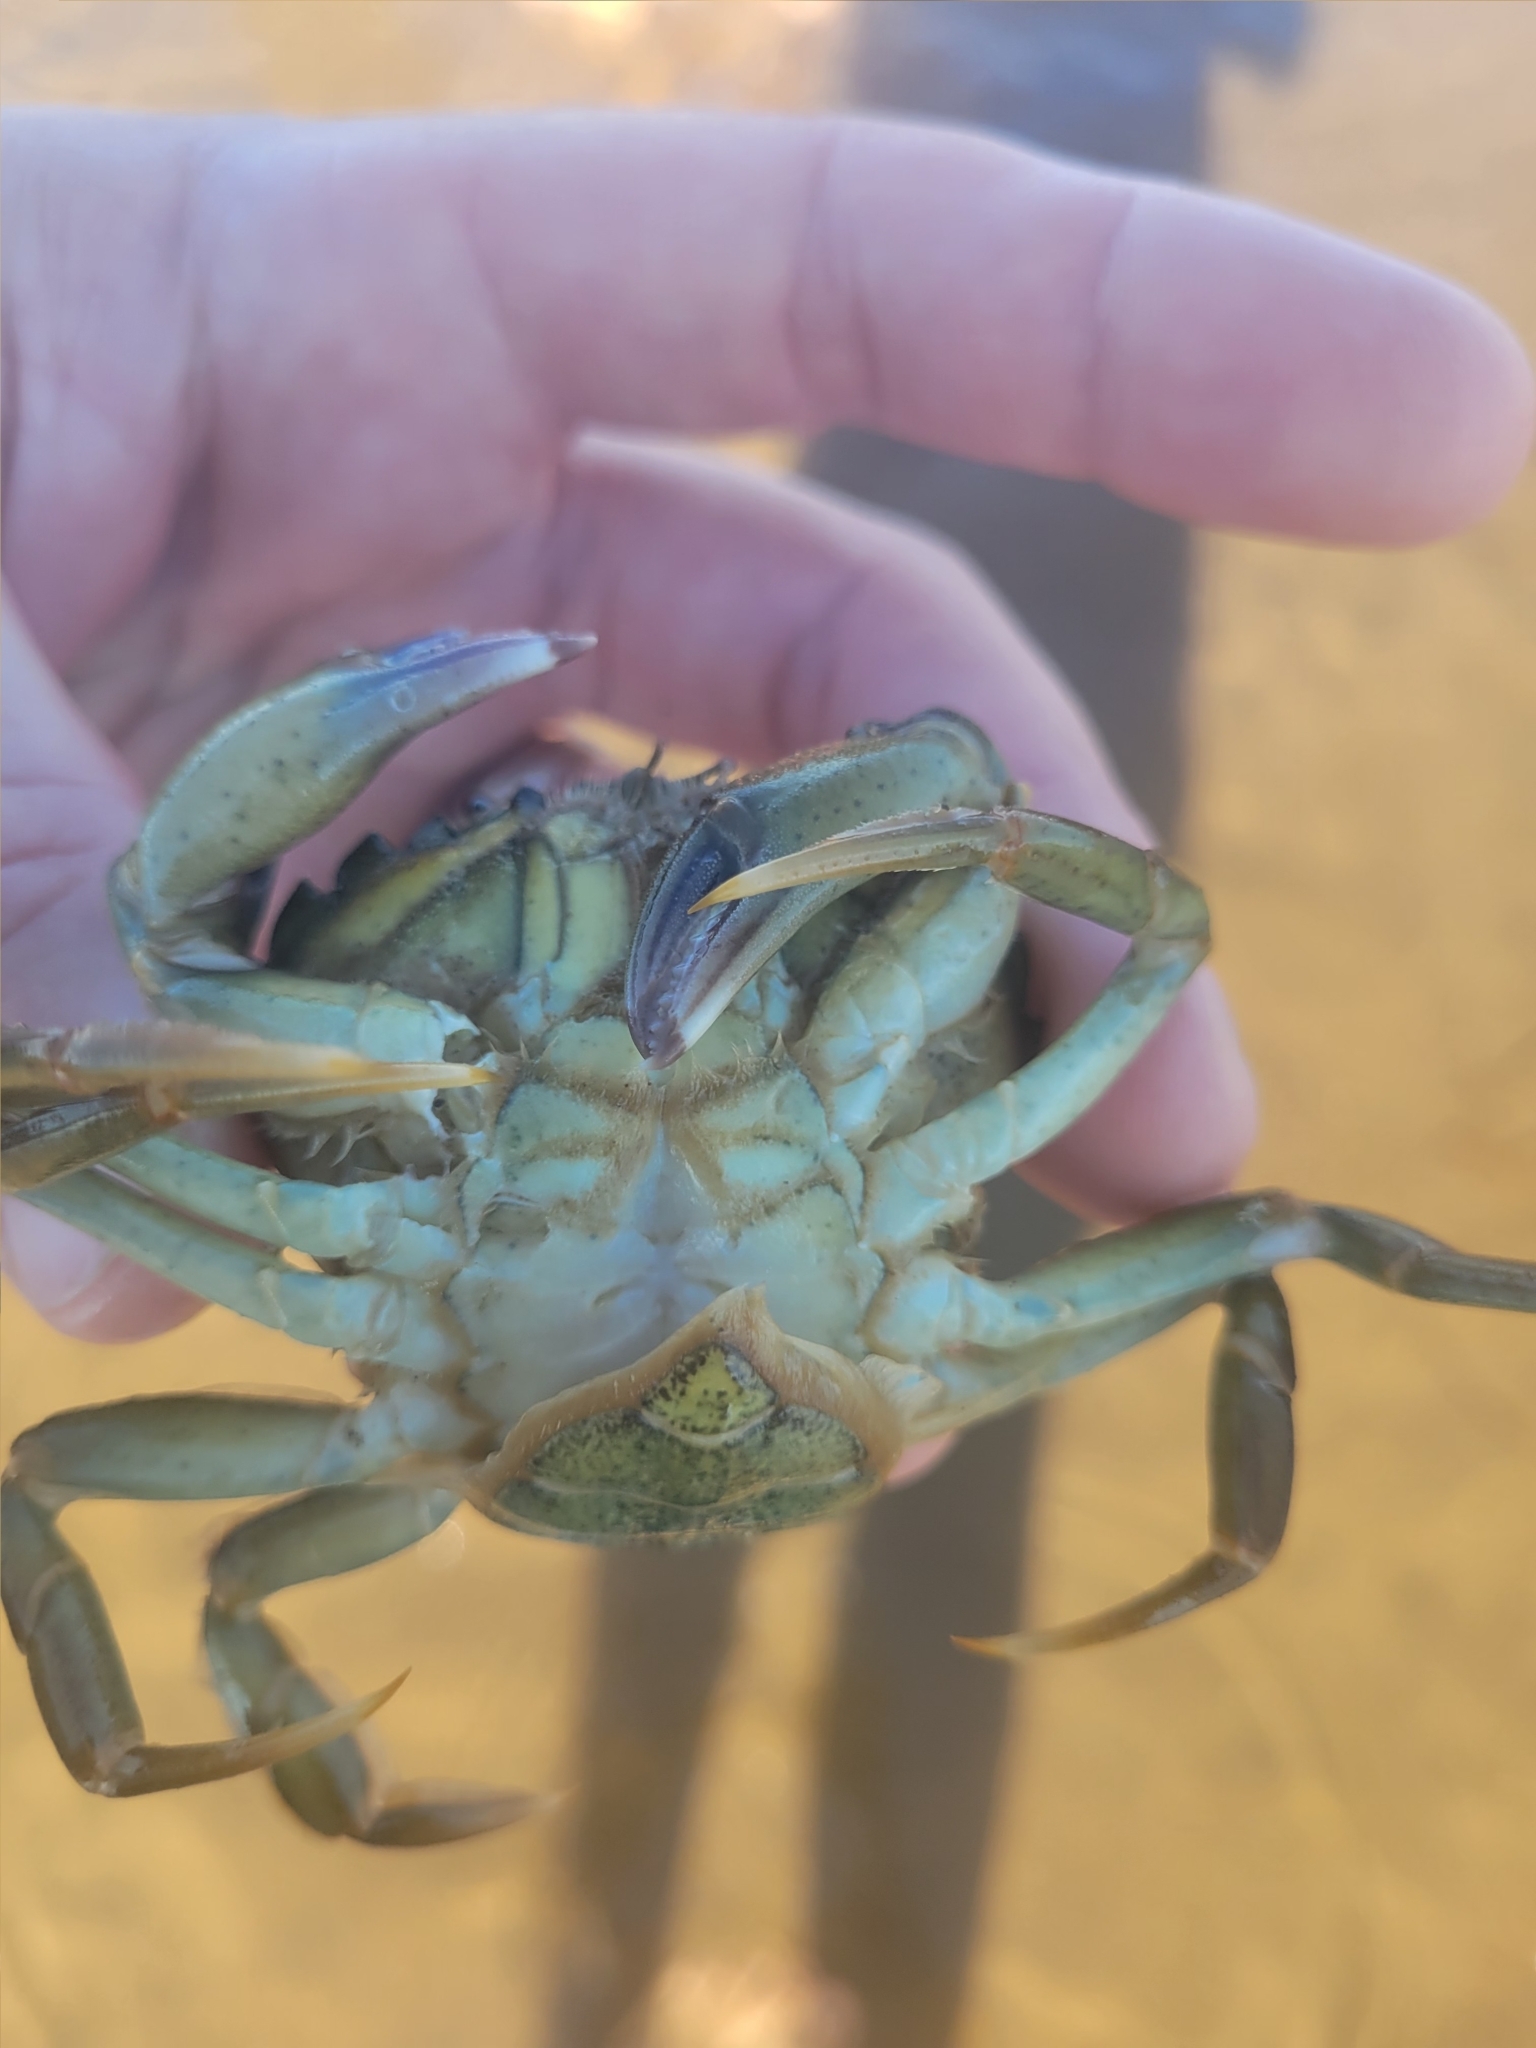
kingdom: Animalia
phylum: Arthropoda
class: Malacostraca
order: Decapoda
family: Carcinidae
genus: Carcinus
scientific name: Carcinus maenas
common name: European green crab
